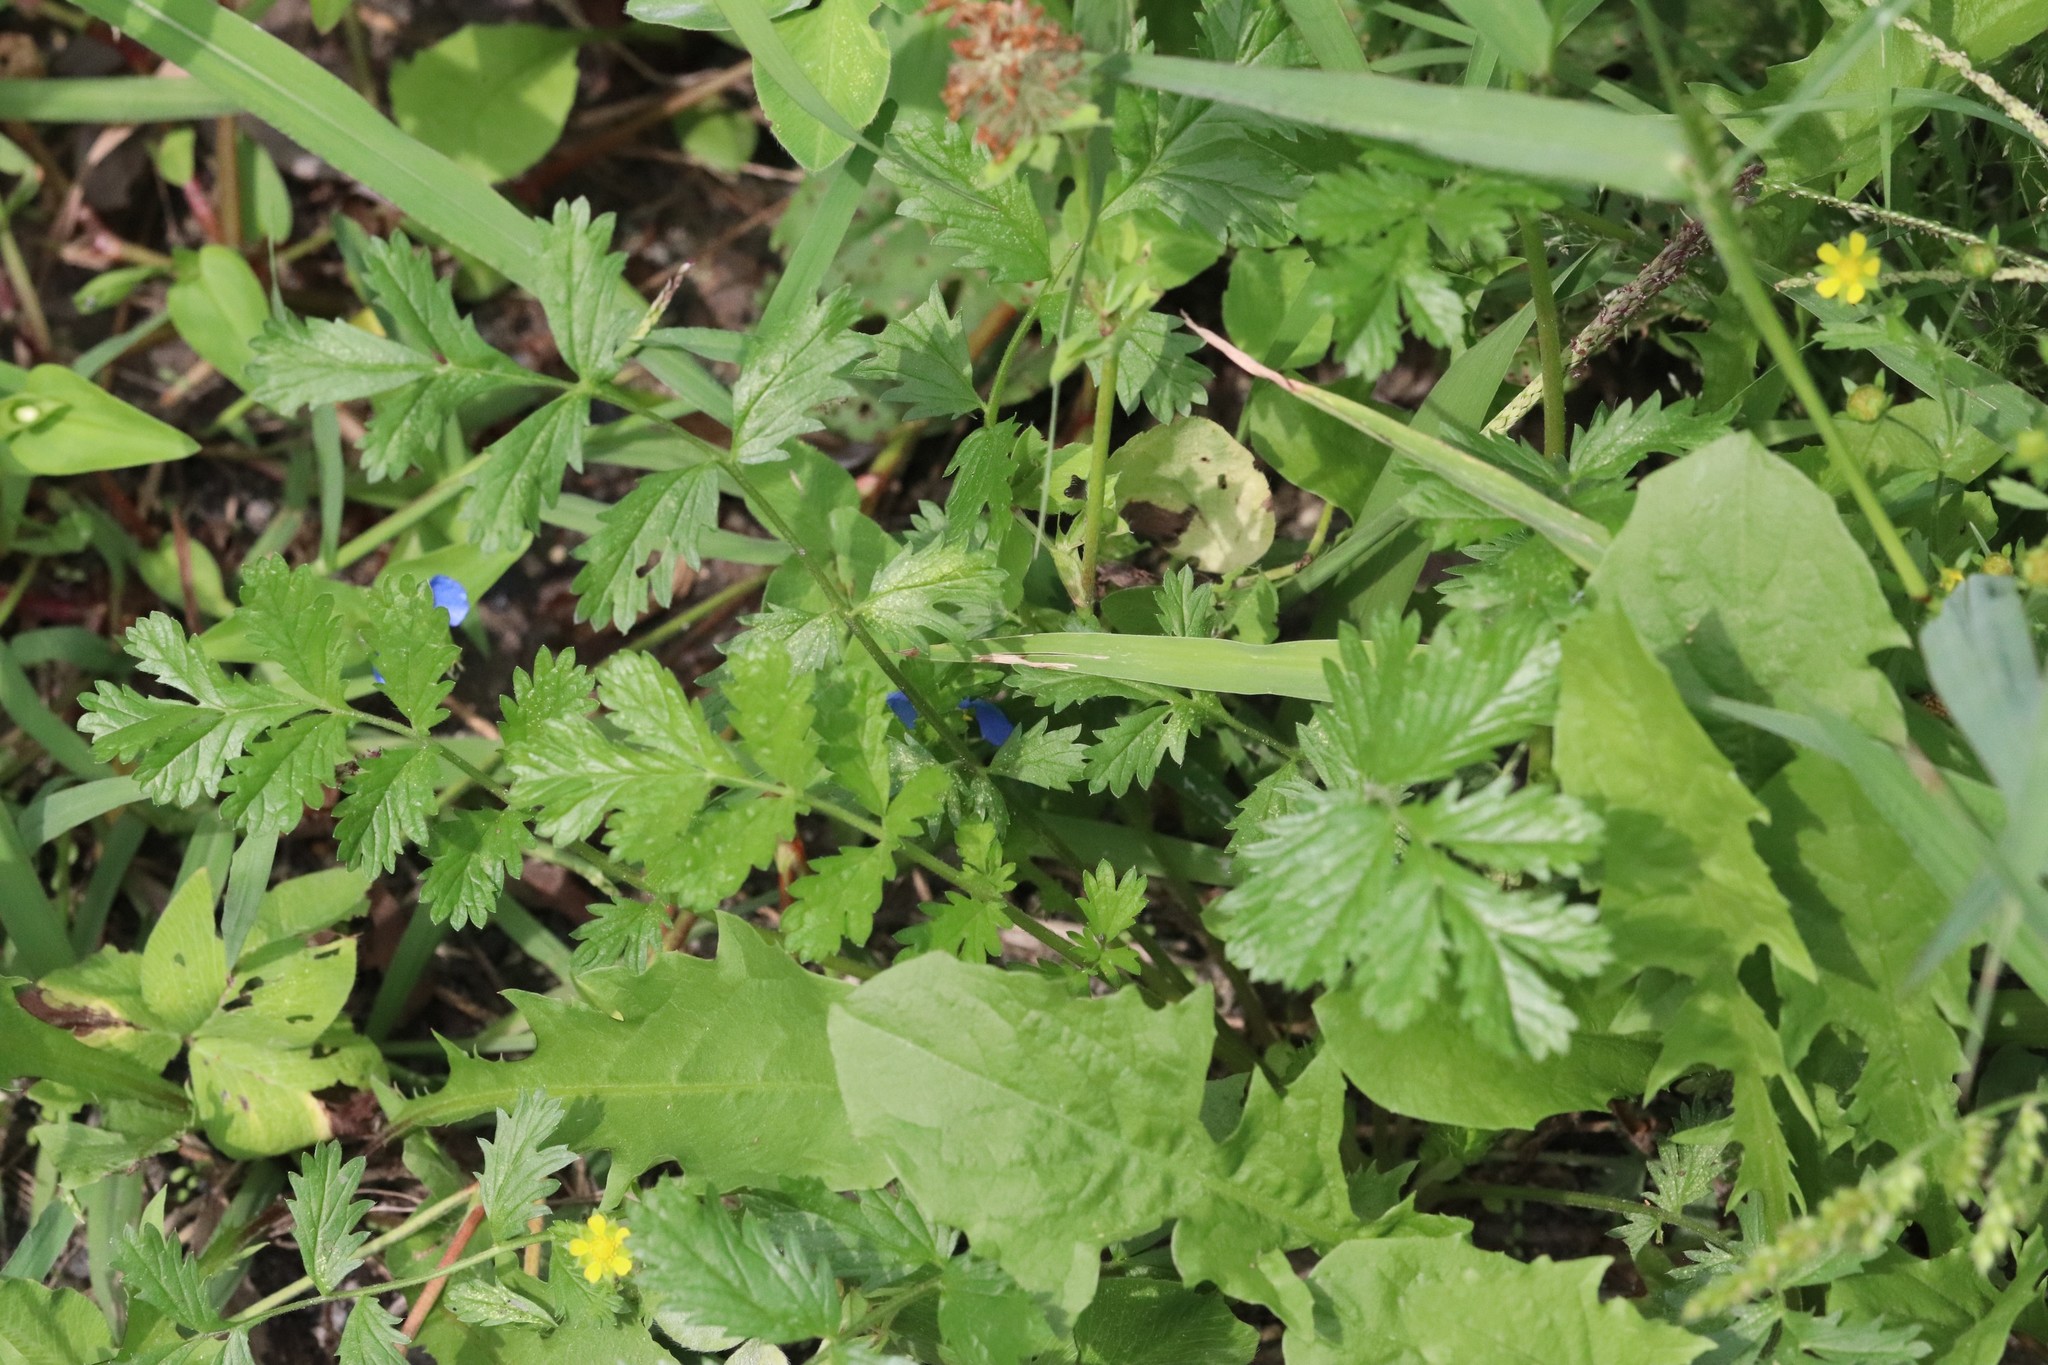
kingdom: Plantae
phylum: Tracheophyta
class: Magnoliopsida
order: Rosales
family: Rosaceae
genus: Potentilla
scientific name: Potentilla supina
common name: Prostrate cinquefoil
